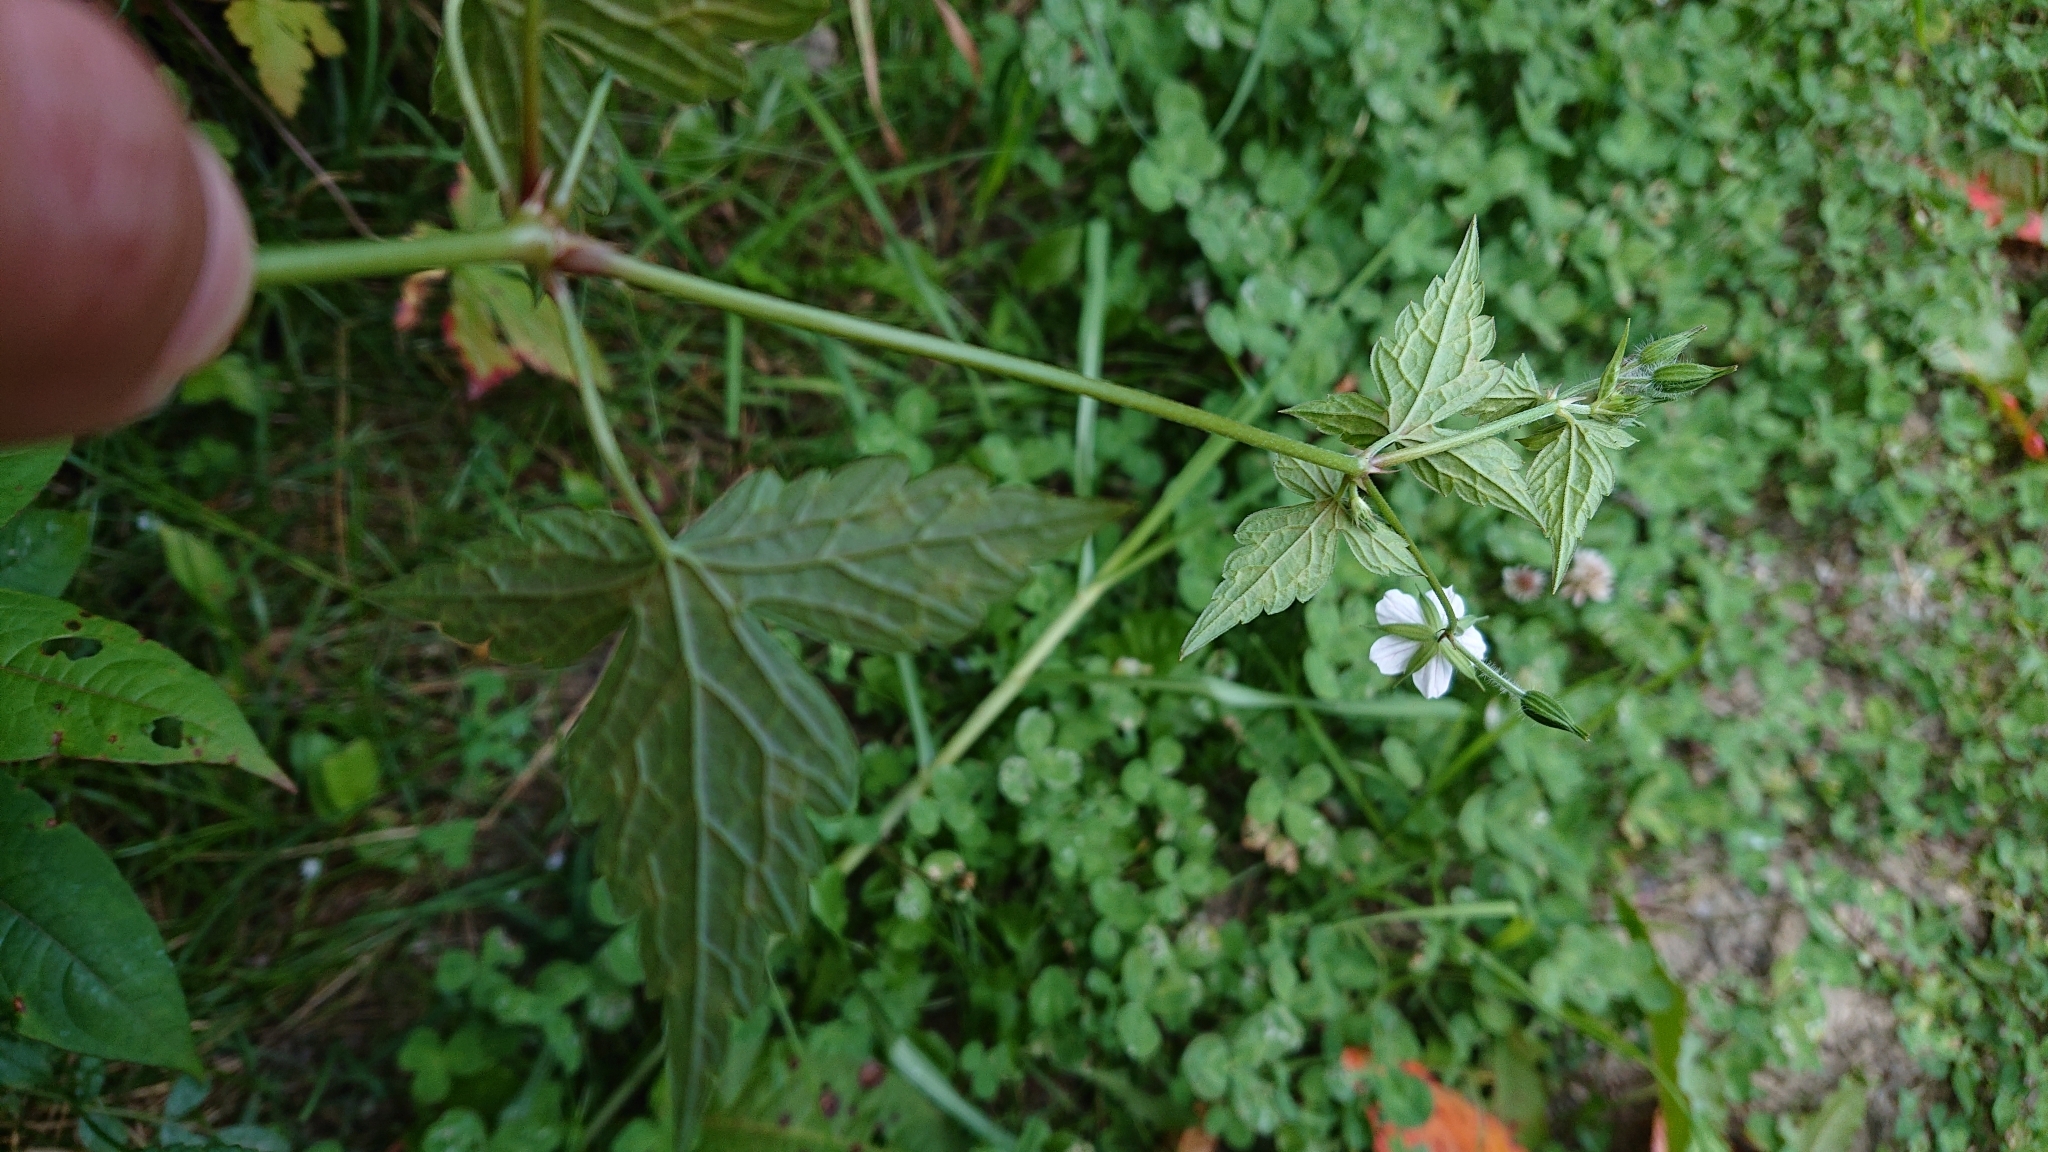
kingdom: Plantae
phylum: Tracheophyta
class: Magnoliopsida
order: Geraniales
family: Geraniaceae
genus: Geranium
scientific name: Geranium wilfordii
